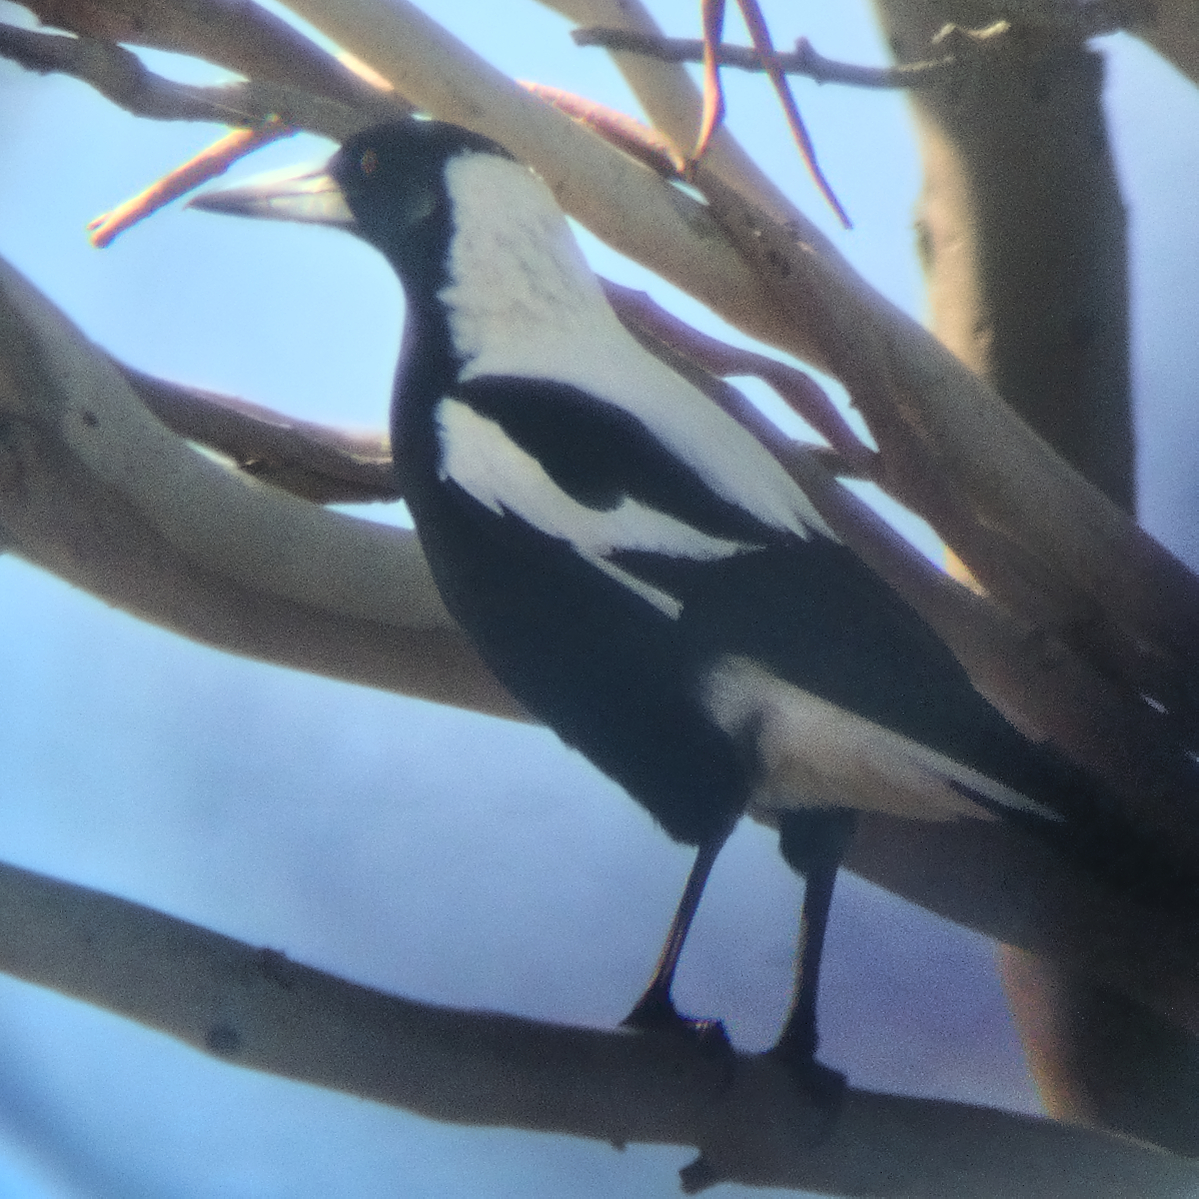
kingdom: Animalia
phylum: Chordata
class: Aves
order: Passeriformes
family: Cracticidae
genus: Gymnorhina
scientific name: Gymnorhina tibicen
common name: Australian magpie
